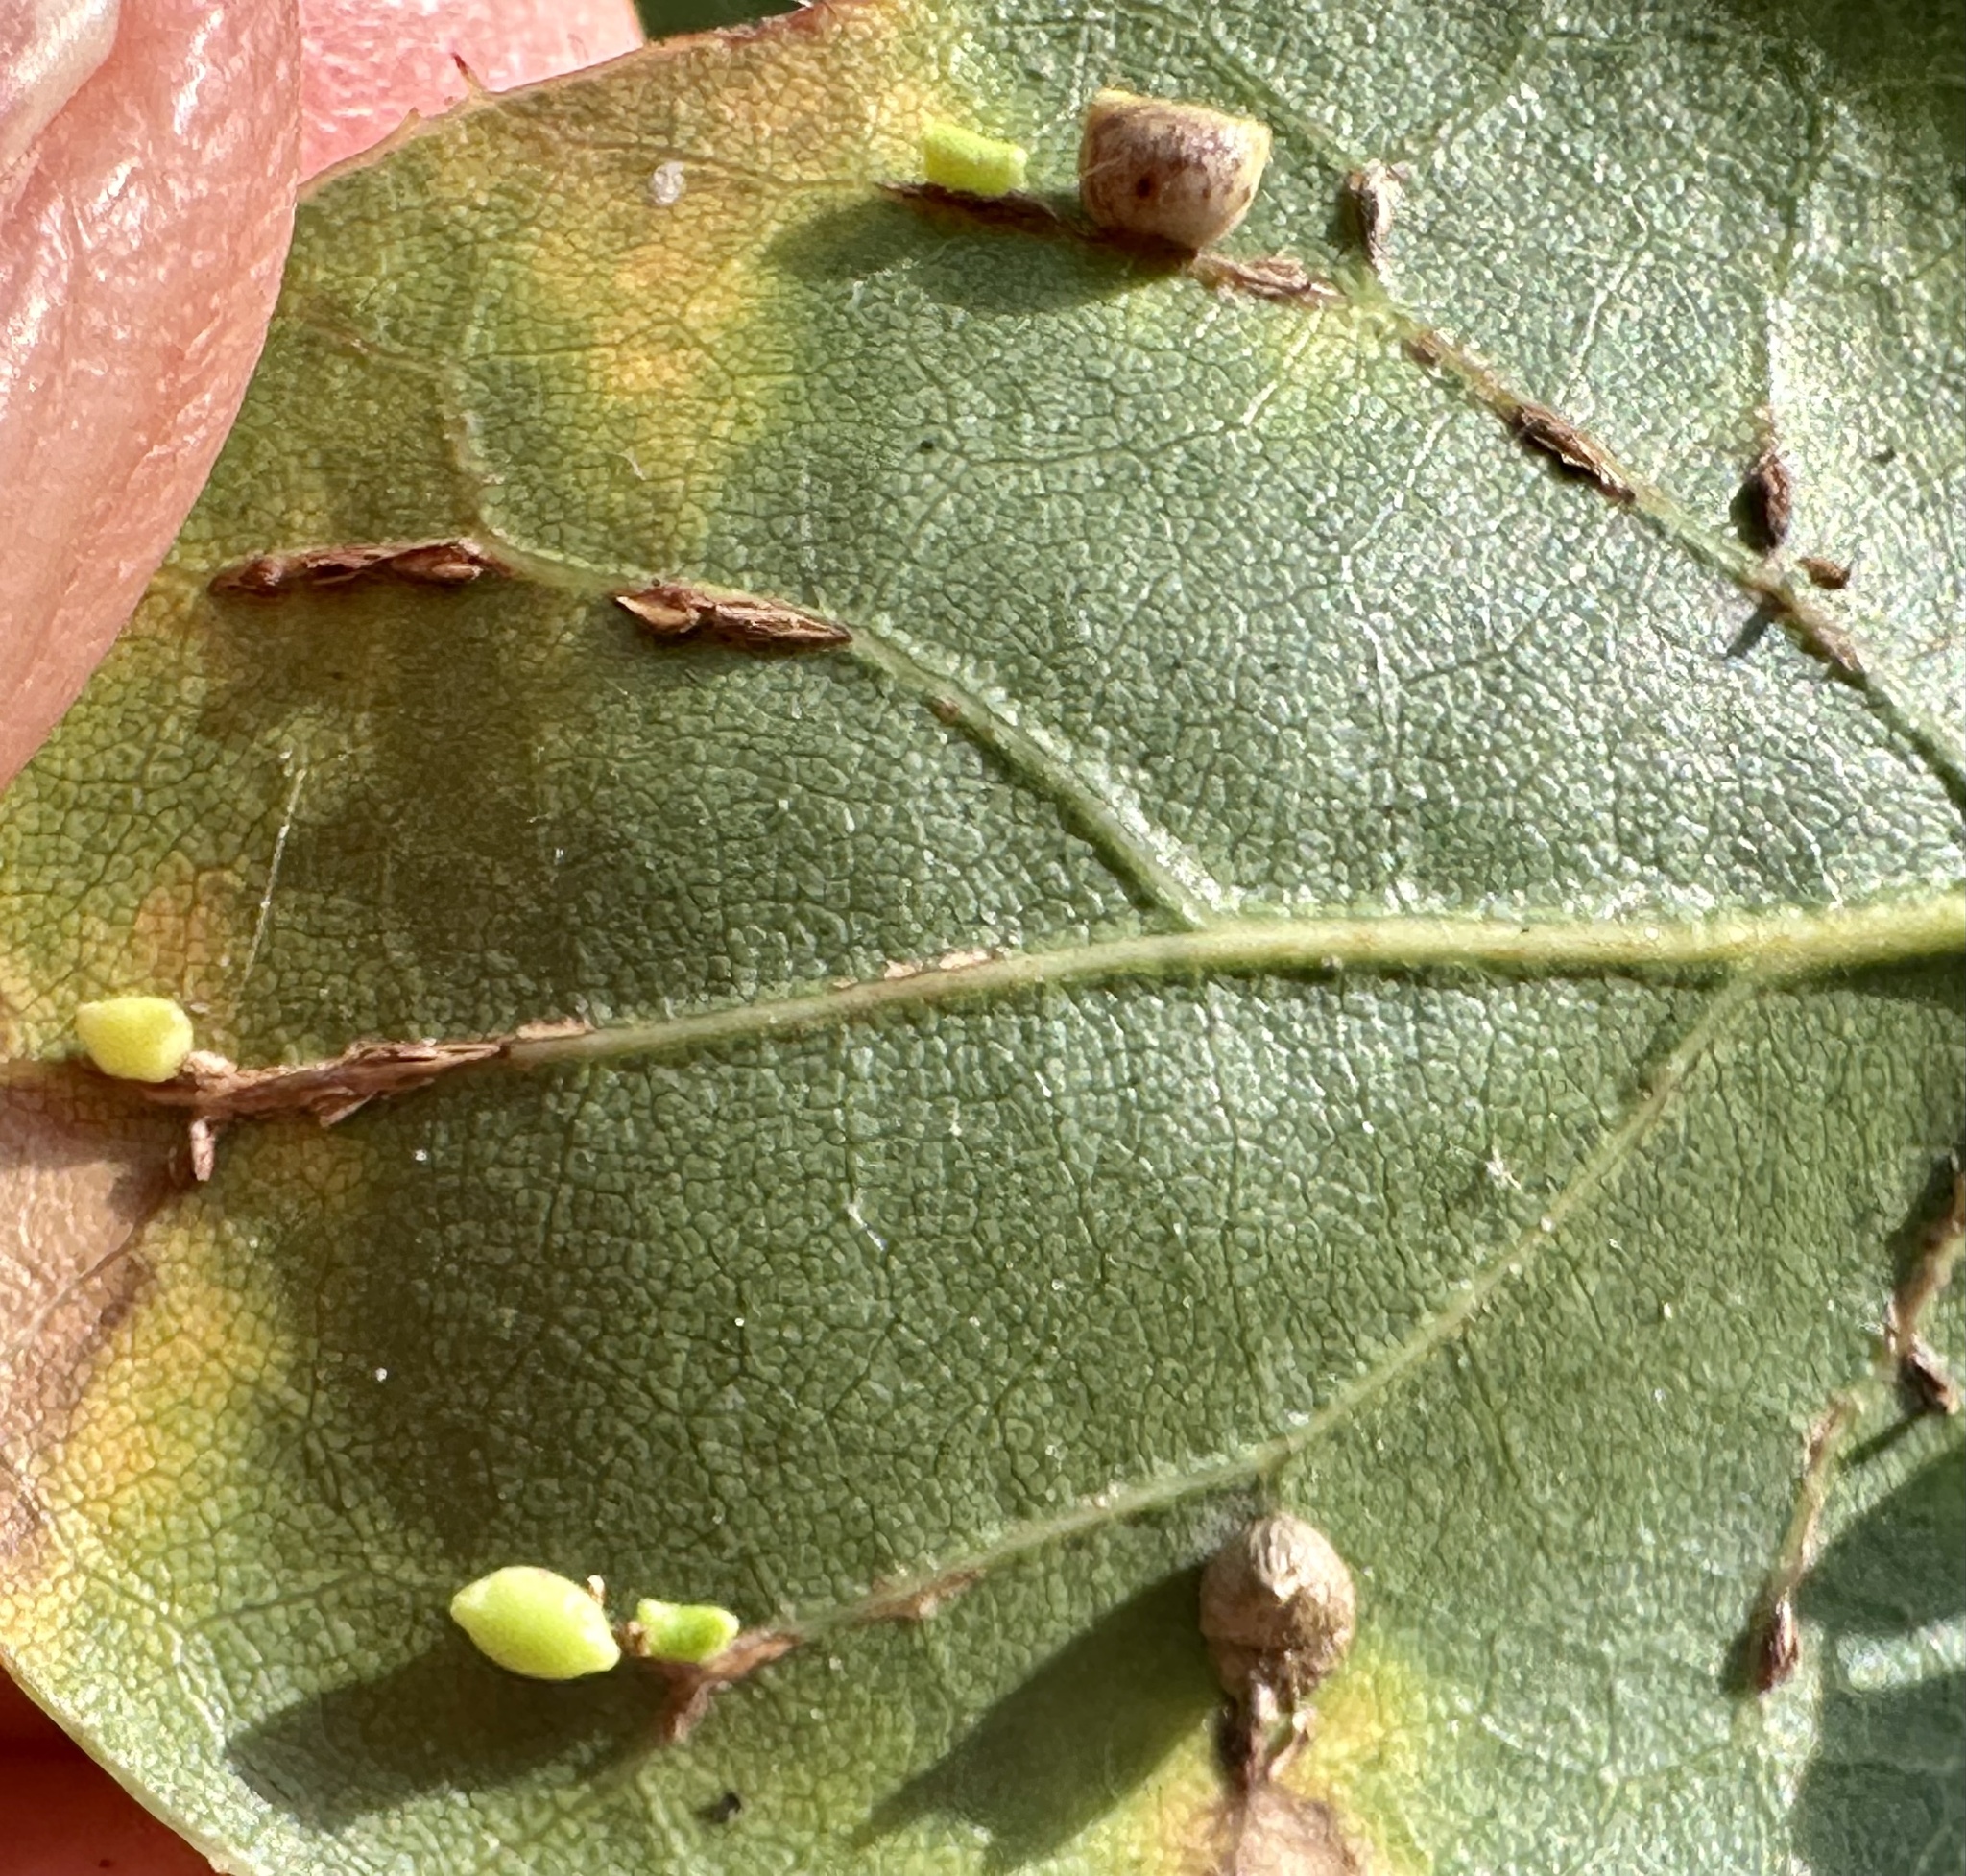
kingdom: Animalia
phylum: Arthropoda
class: Insecta
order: Hymenoptera
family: Cynipidae
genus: Dryocosmus
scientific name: Dryocosmus
